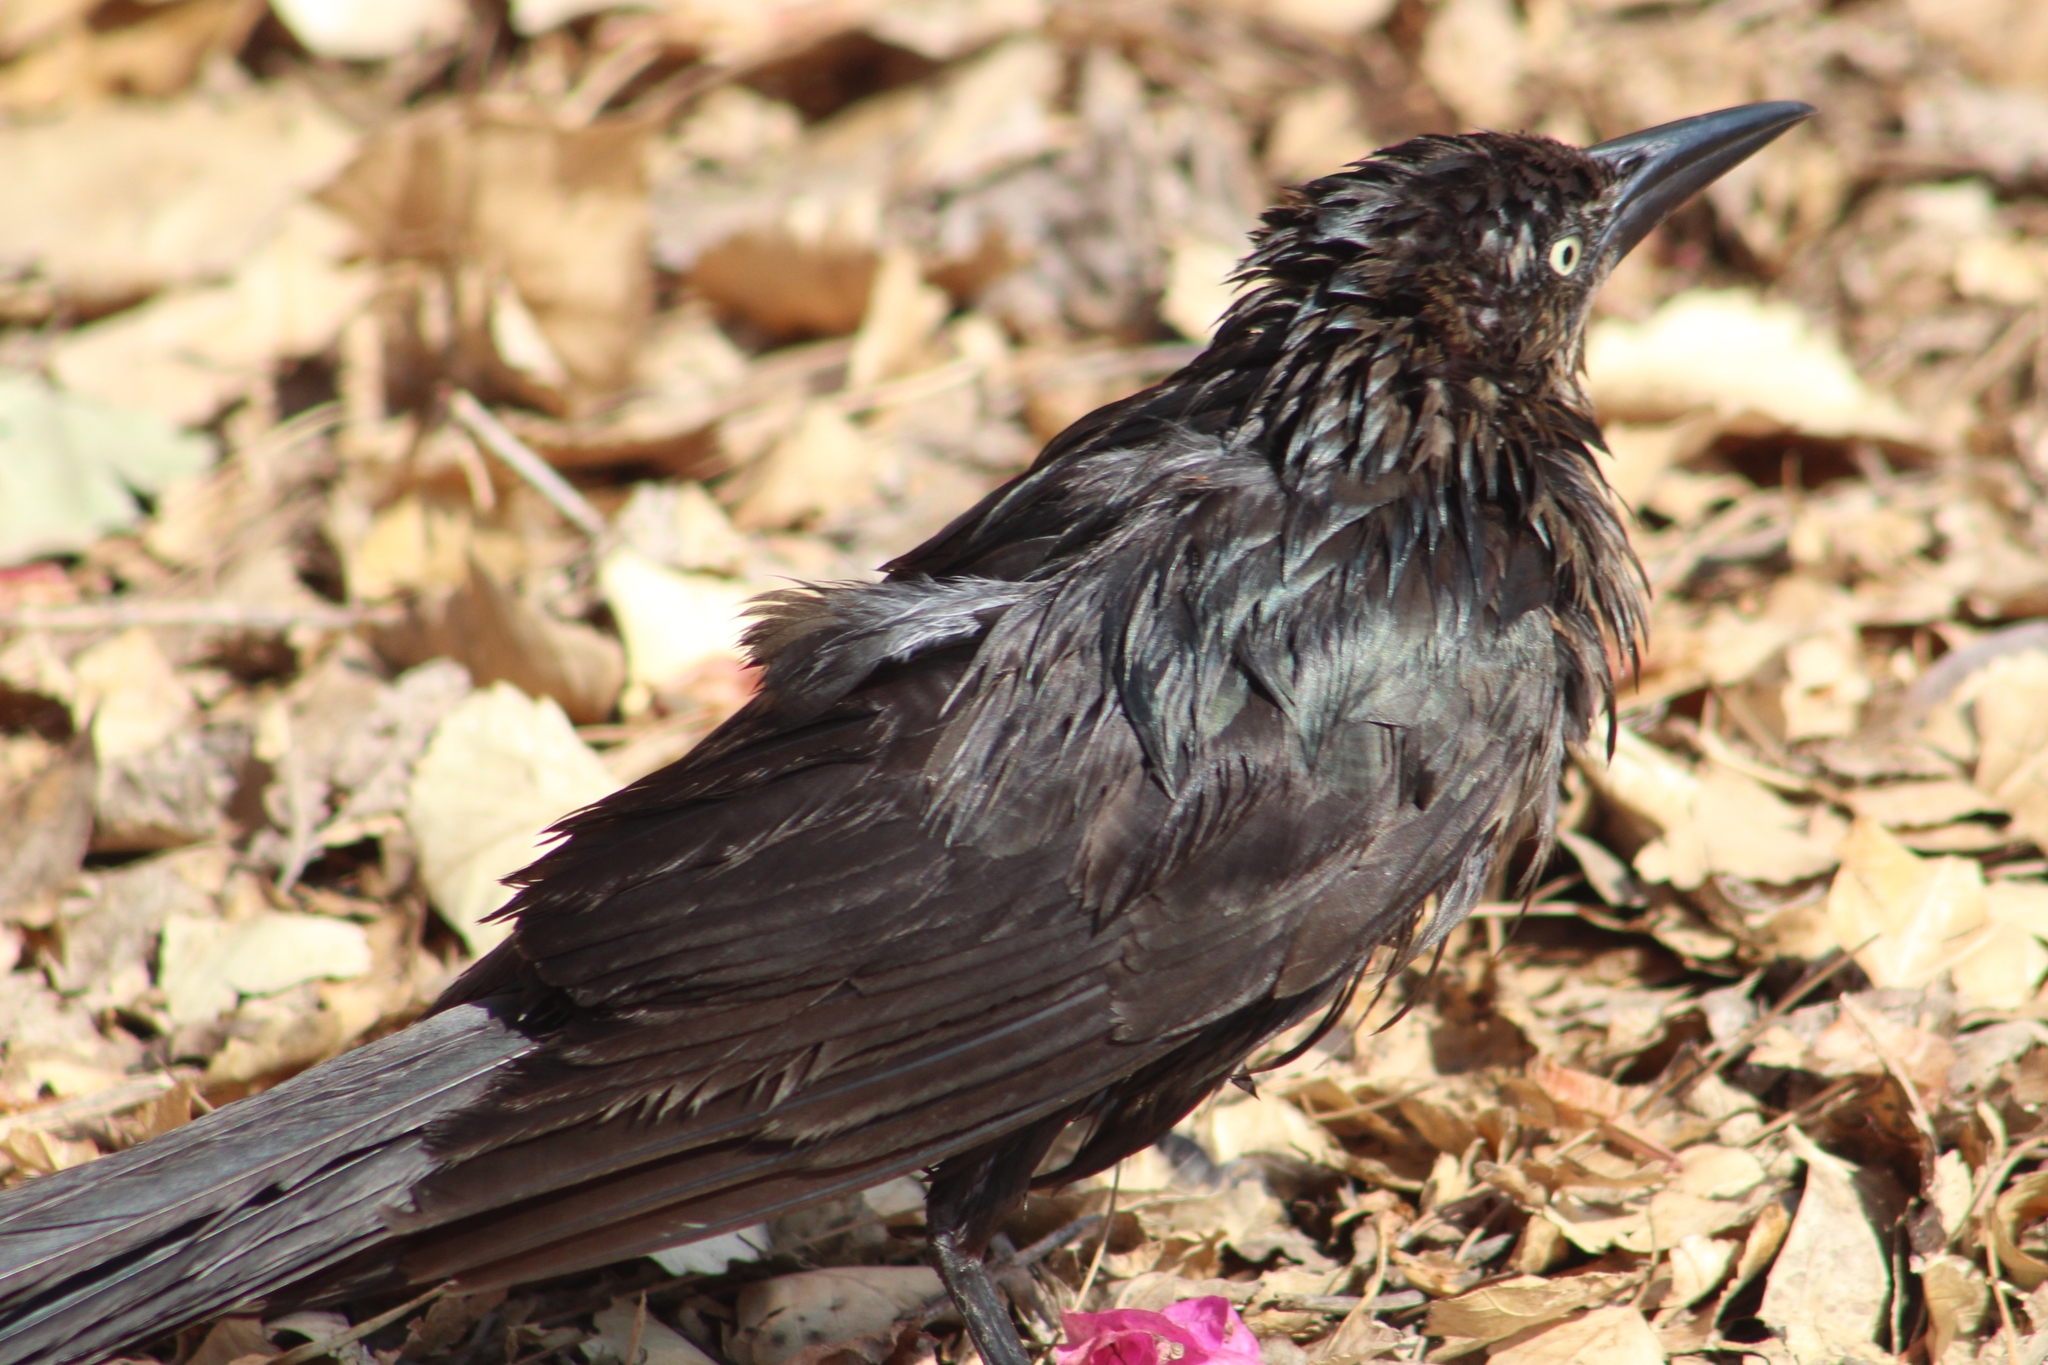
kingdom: Animalia
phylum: Chordata
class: Aves
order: Passeriformes
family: Icteridae
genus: Quiscalus
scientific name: Quiscalus mexicanus
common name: Great-tailed grackle
